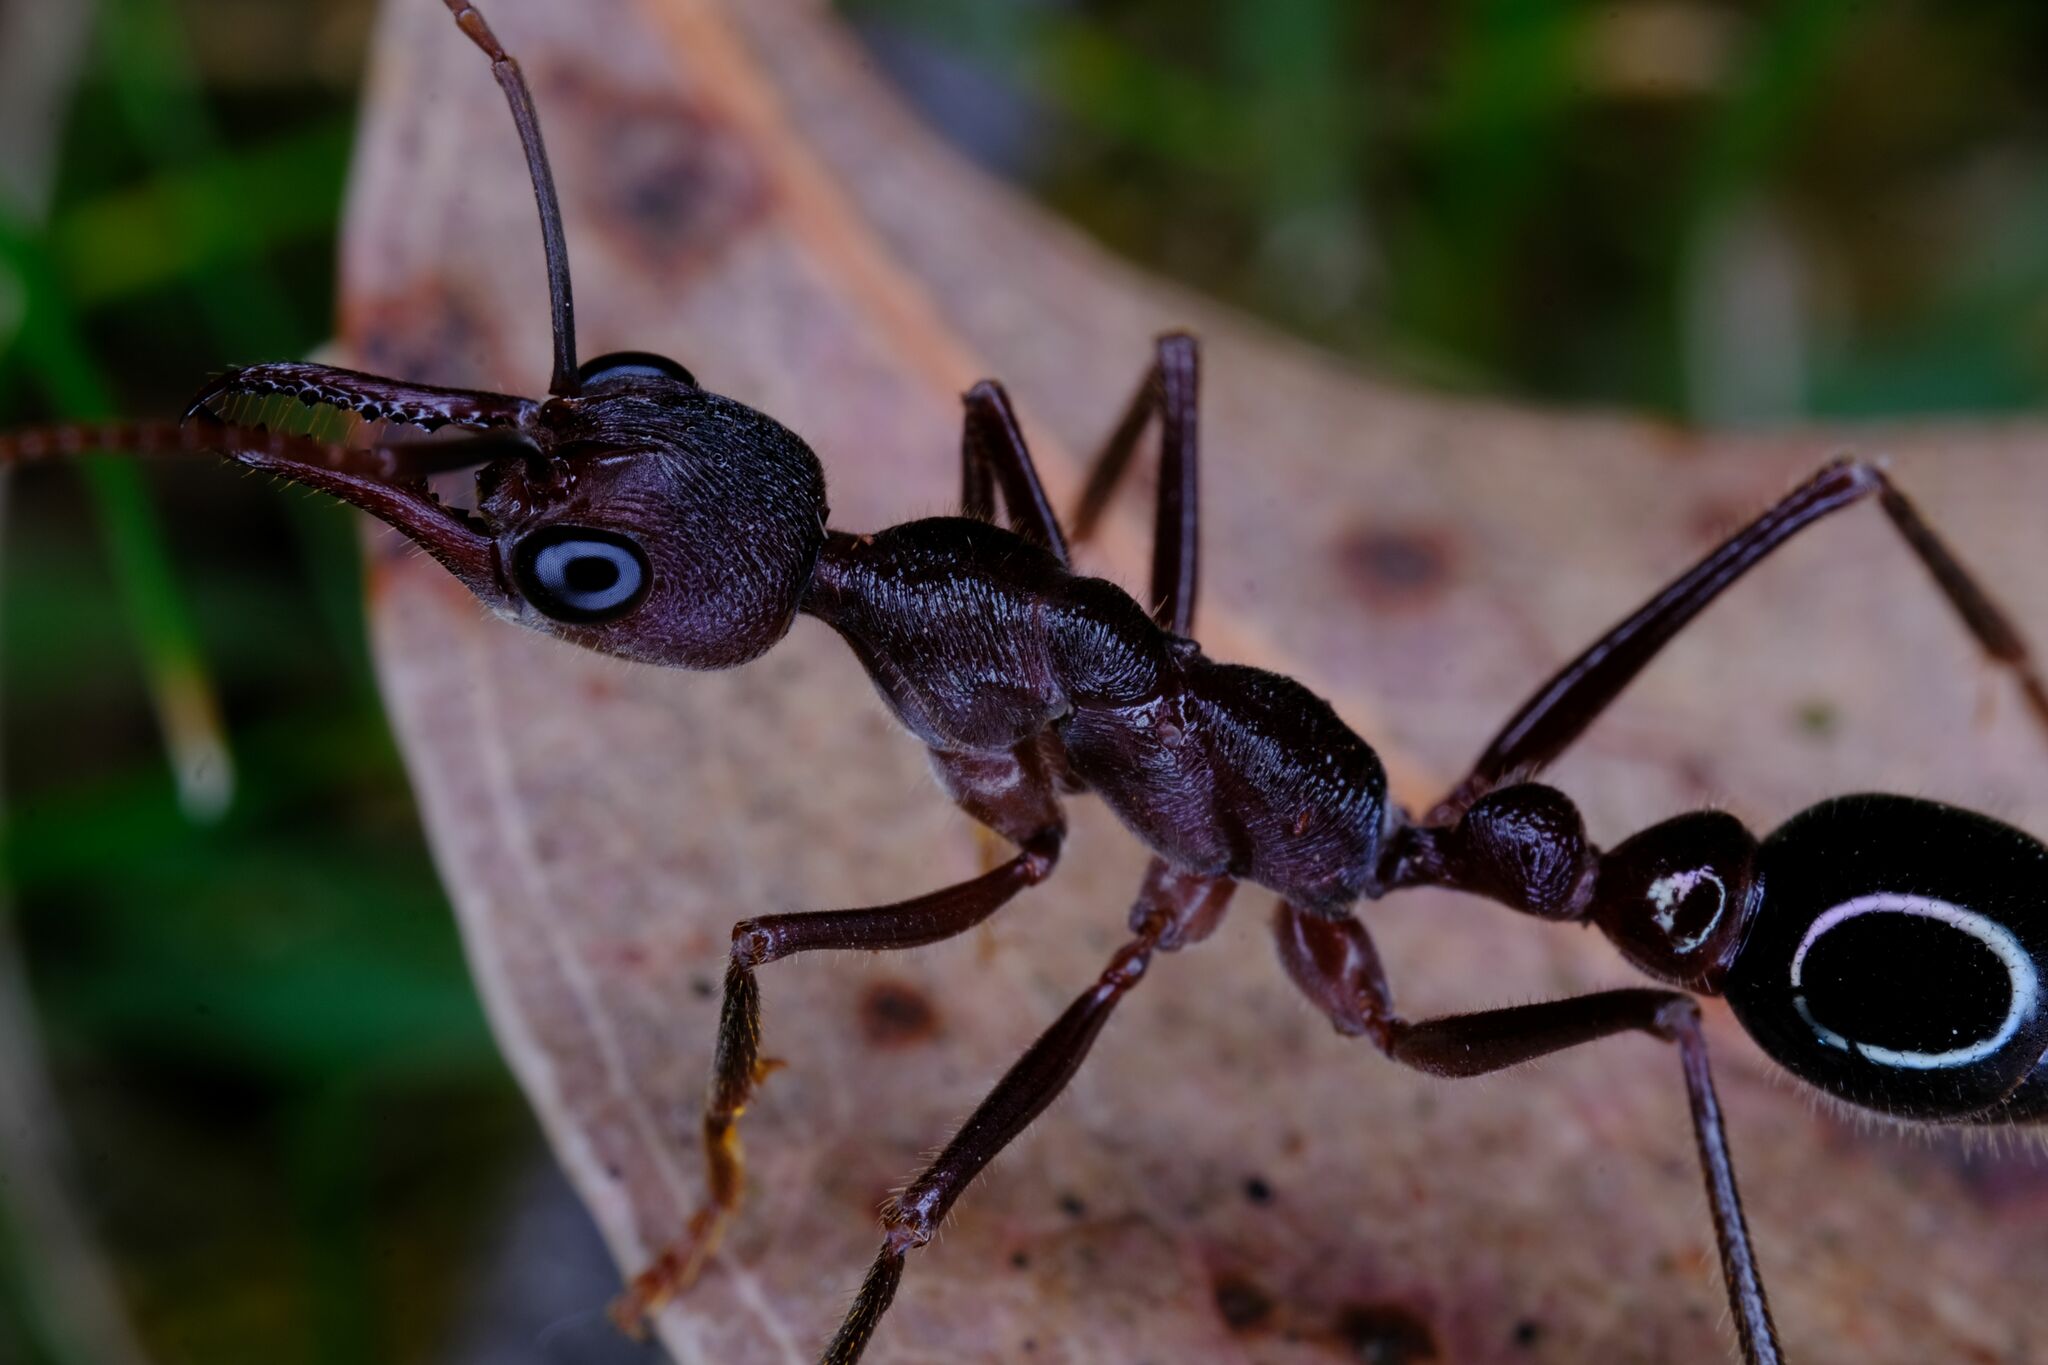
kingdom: Animalia
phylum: Arthropoda
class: Insecta
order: Hymenoptera
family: Formicidae
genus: Myrmecia
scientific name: Myrmecia forficata
